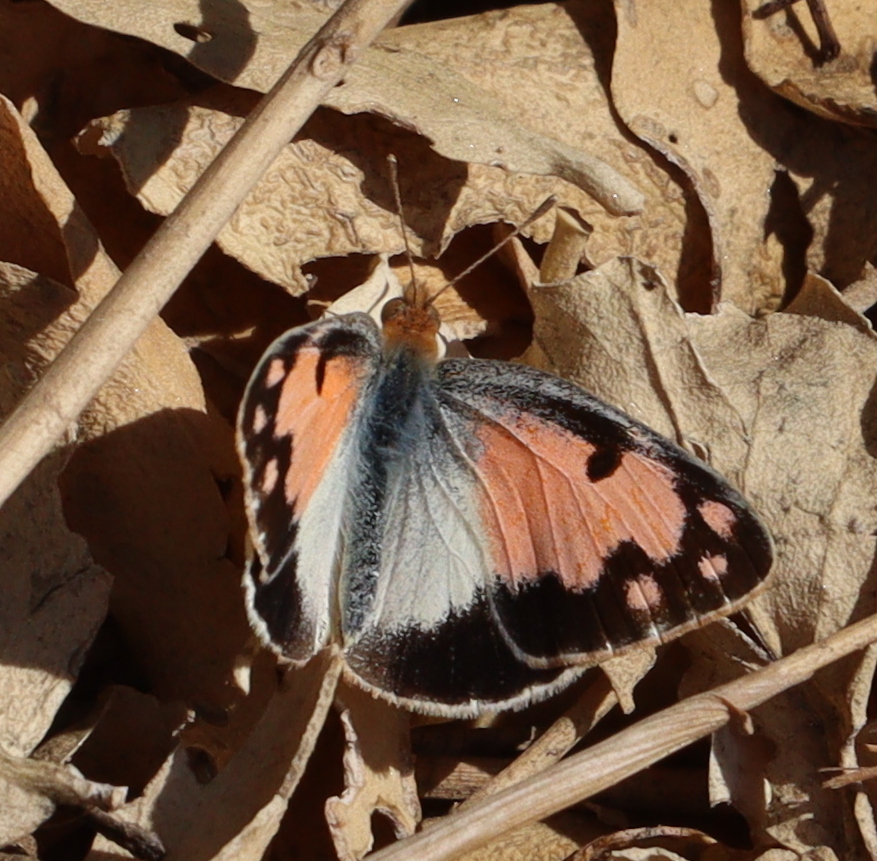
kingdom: Animalia
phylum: Arthropoda
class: Insecta
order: Lepidoptera
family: Pieridae
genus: Colotis
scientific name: Colotis phisadia
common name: Blue spotted arab
